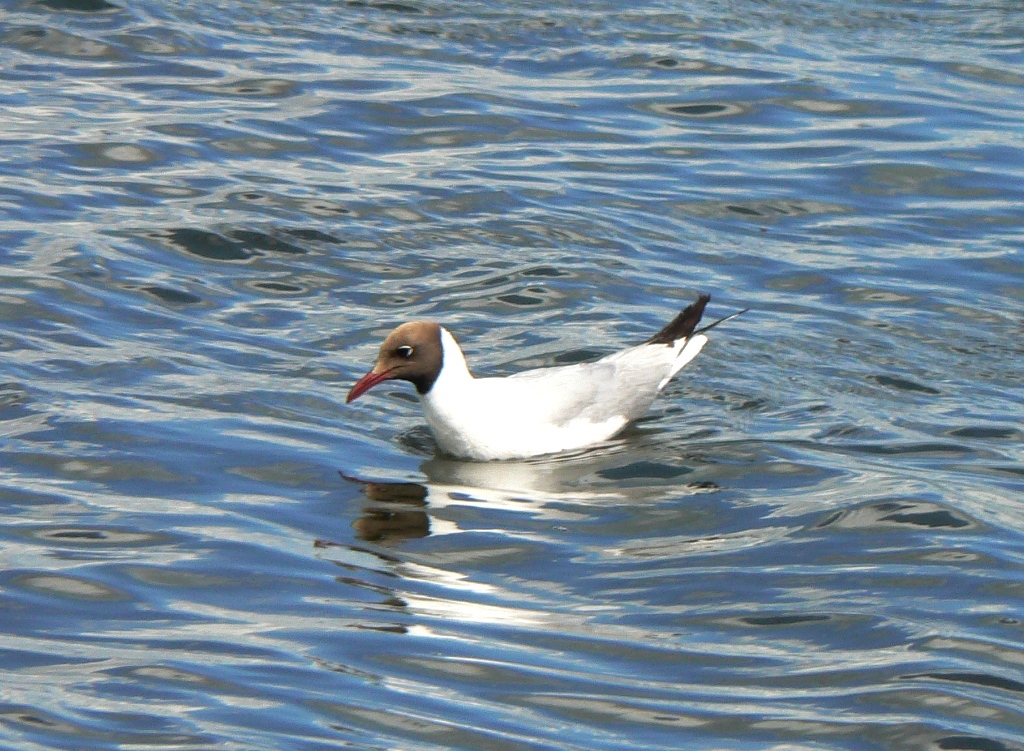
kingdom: Animalia
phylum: Chordata
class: Aves
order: Charadriiformes
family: Laridae
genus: Chroicocephalus
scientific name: Chroicocephalus ridibundus
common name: Black-headed gull
